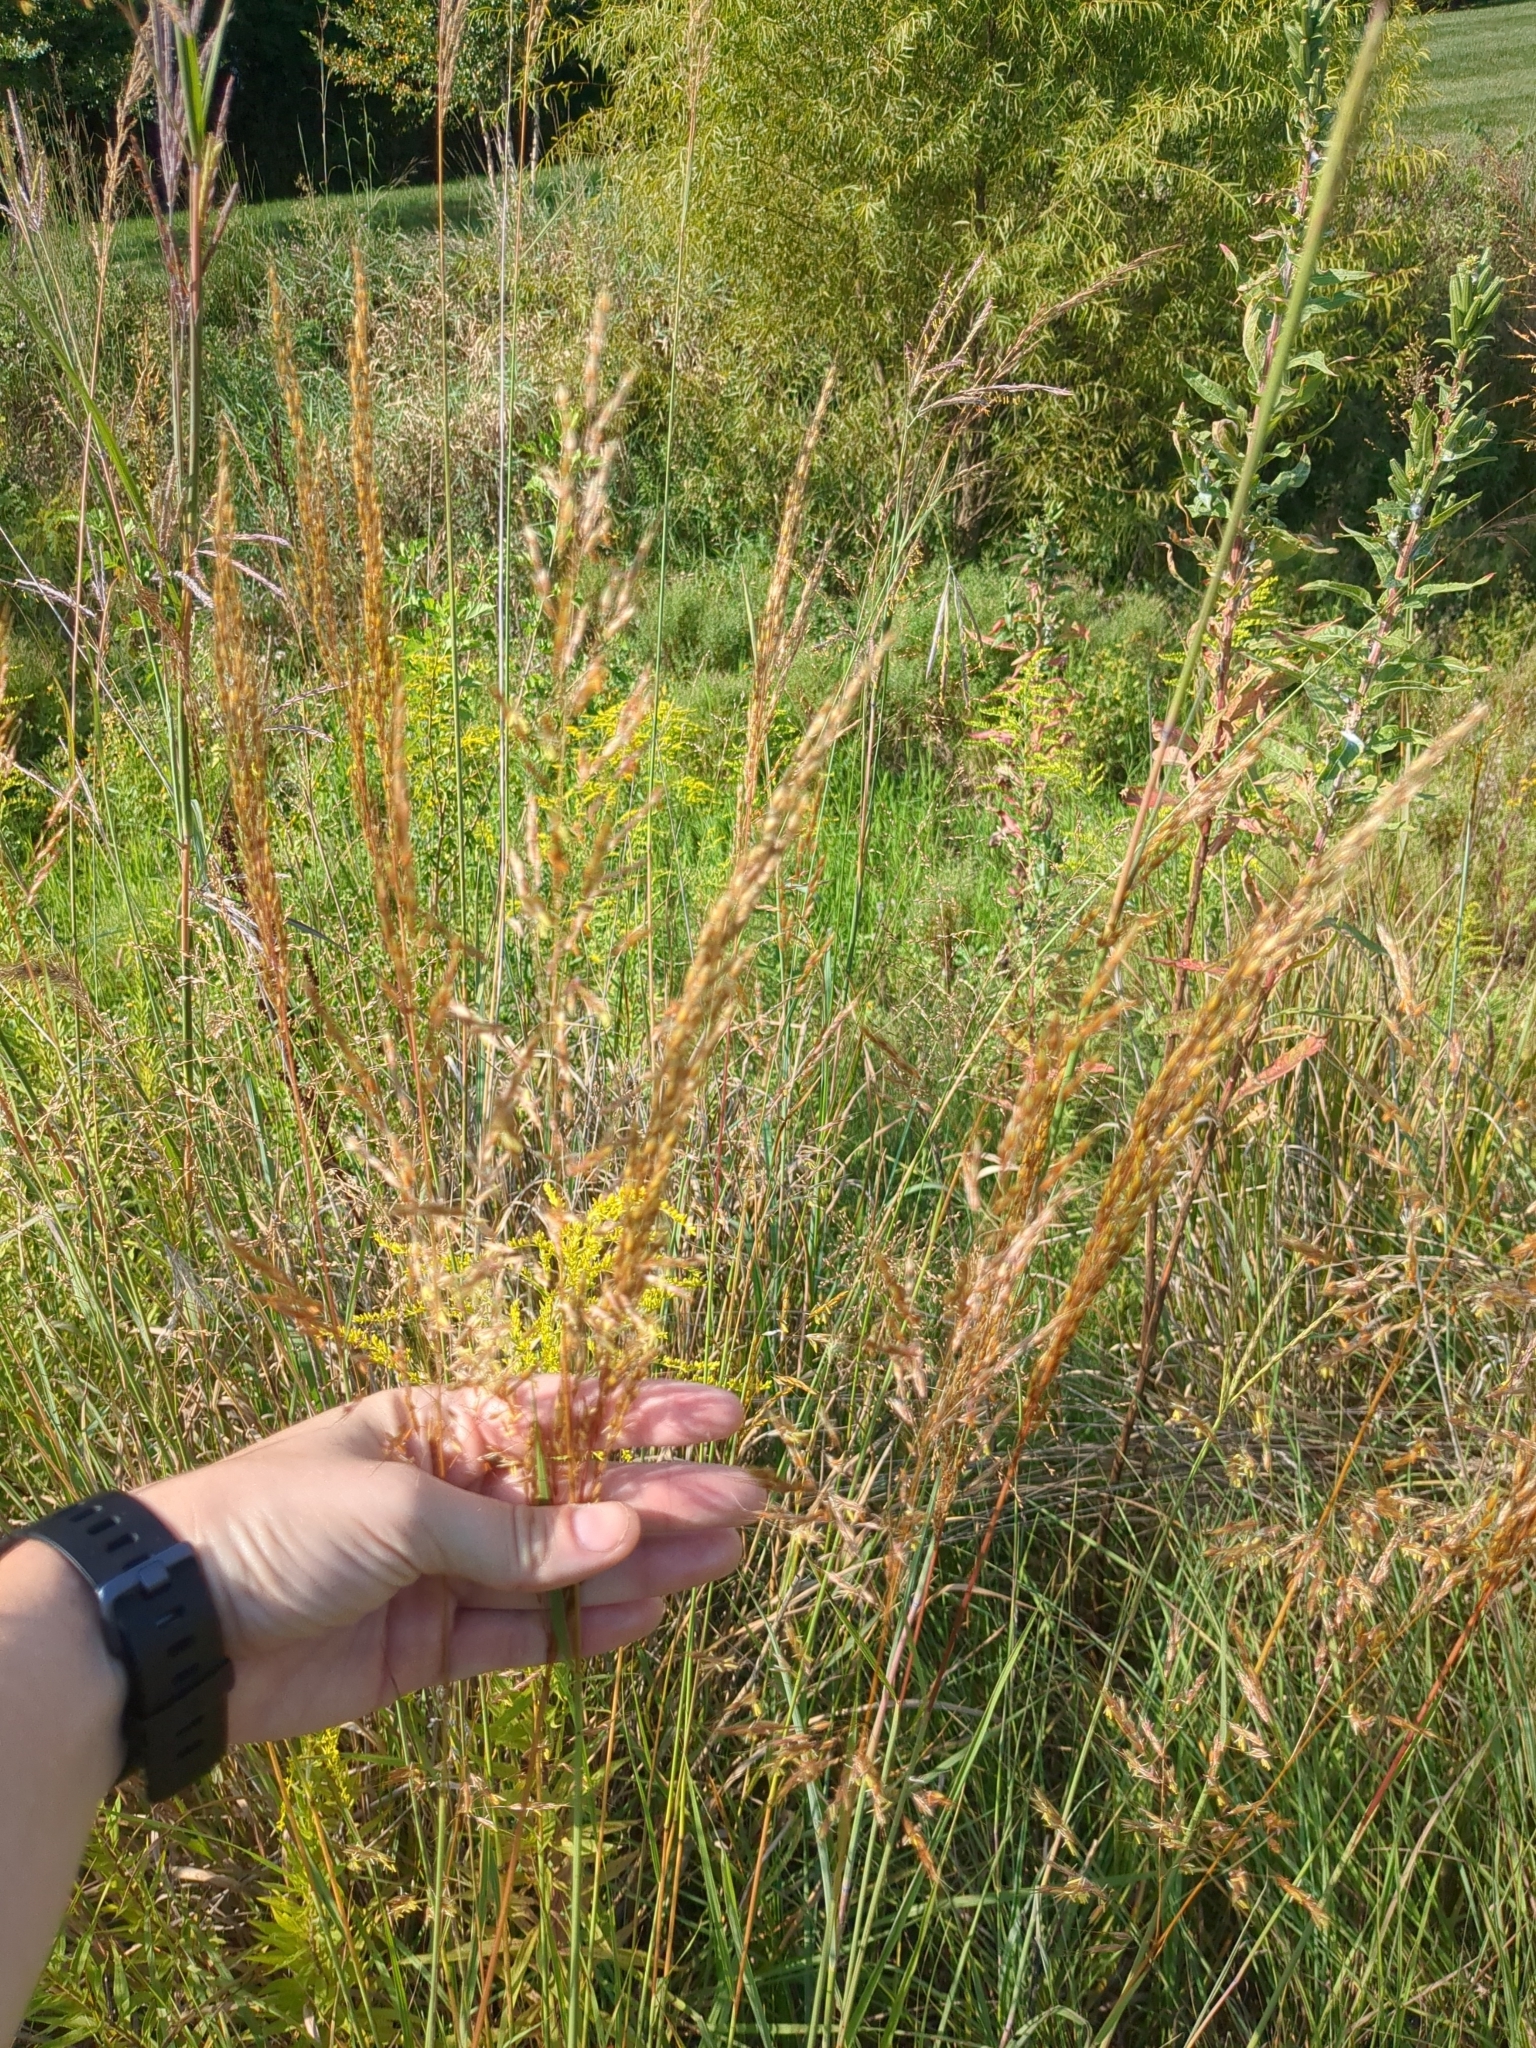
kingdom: Plantae
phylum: Tracheophyta
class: Liliopsida
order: Poales
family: Poaceae
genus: Sorghastrum
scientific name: Sorghastrum nutans
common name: Indian grass
